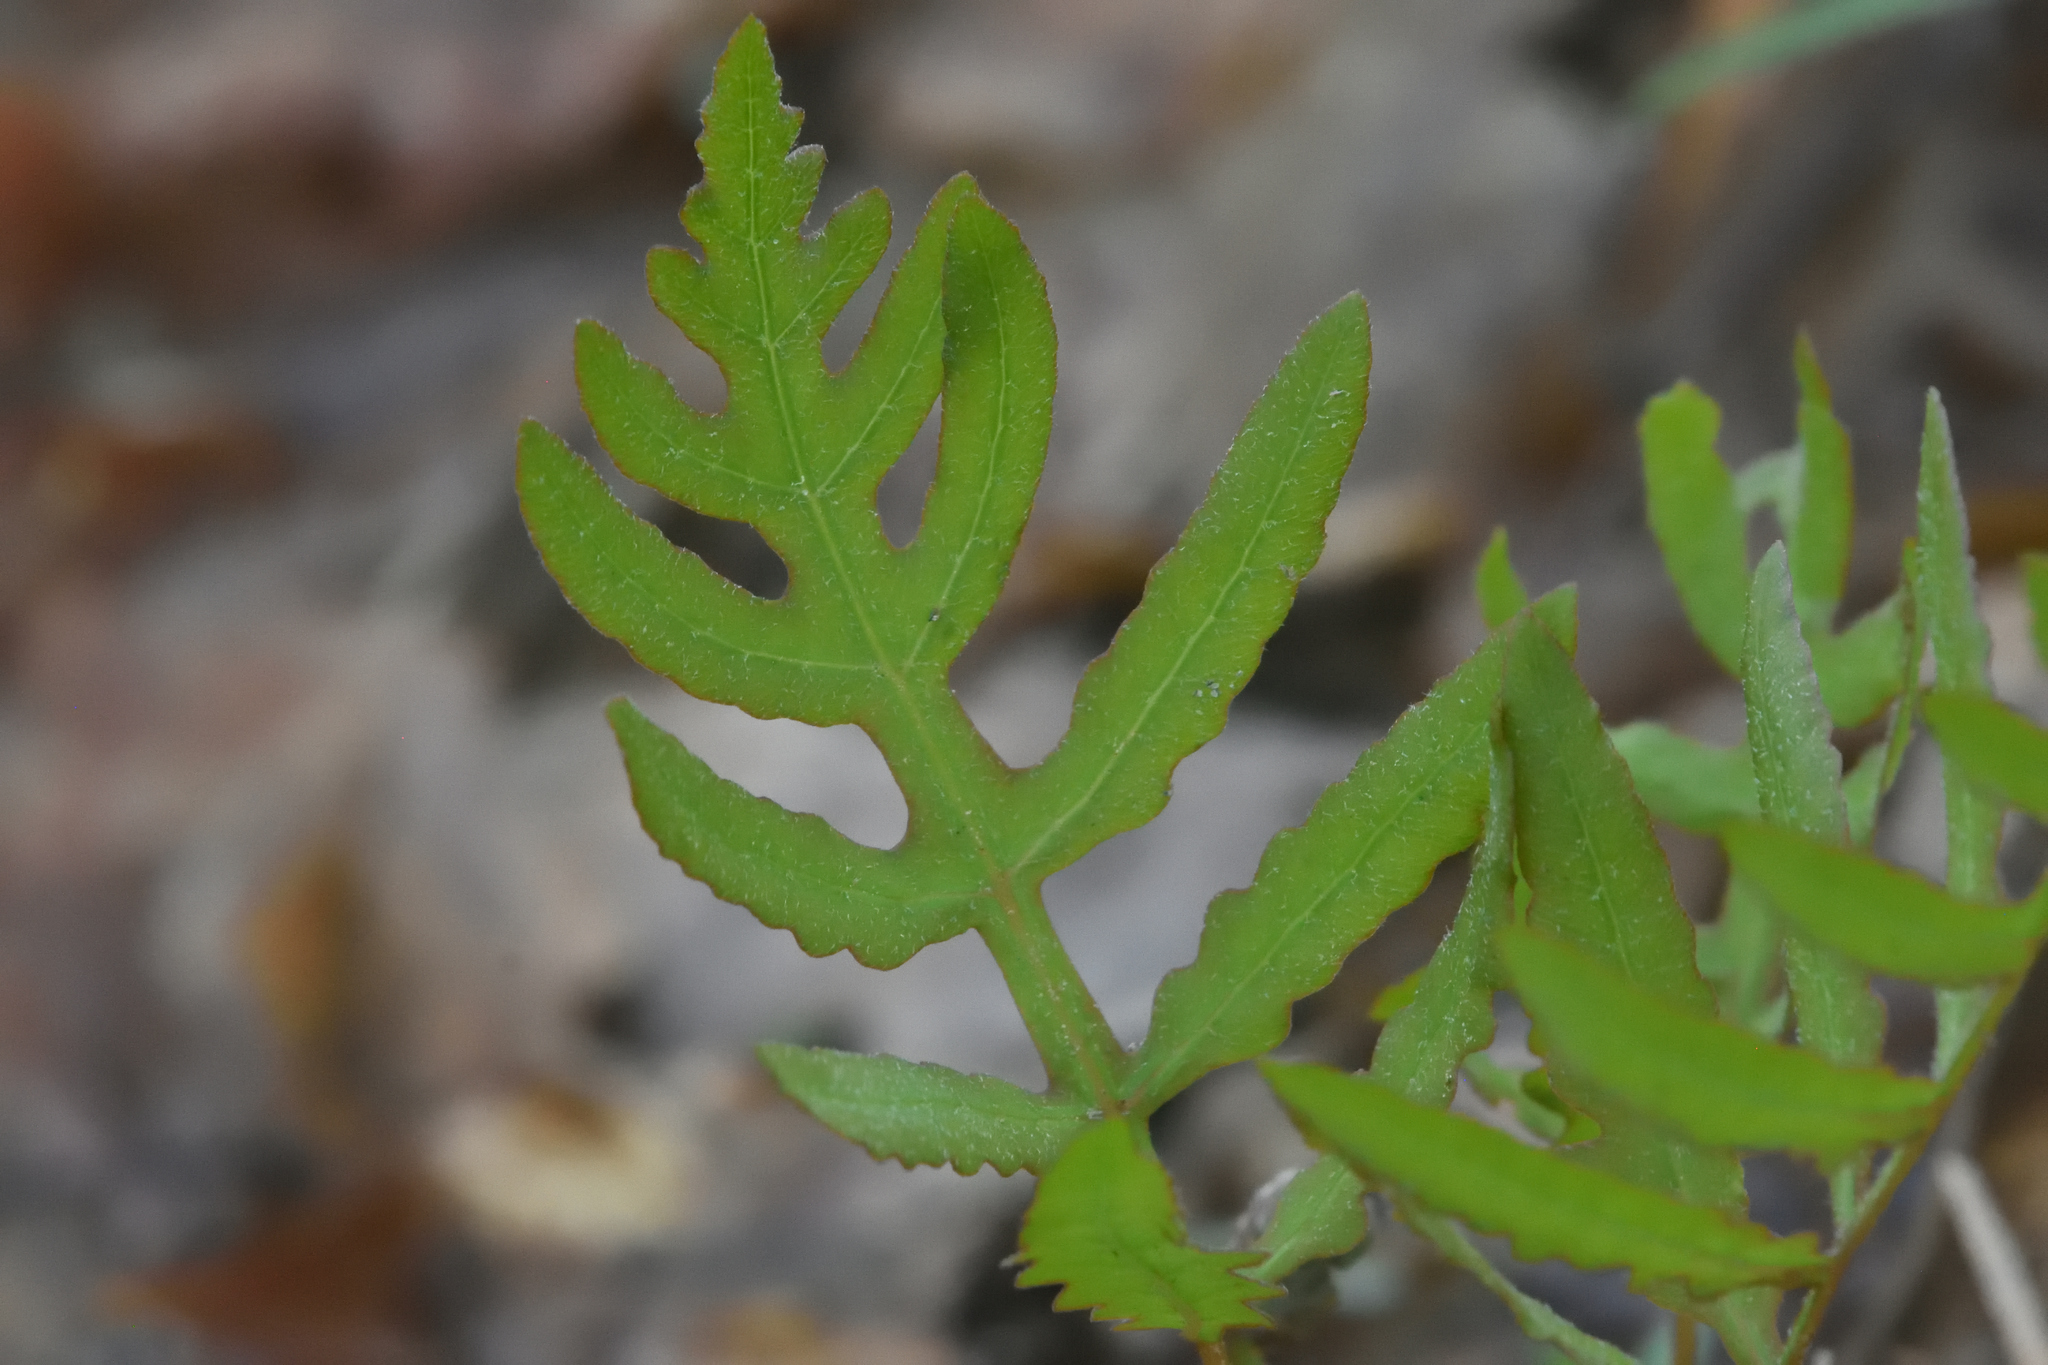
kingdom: Plantae
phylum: Tracheophyta
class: Polypodiopsida
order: Polypodiales
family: Onocleaceae
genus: Onoclea
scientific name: Onoclea sensibilis
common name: Sensitive fern
